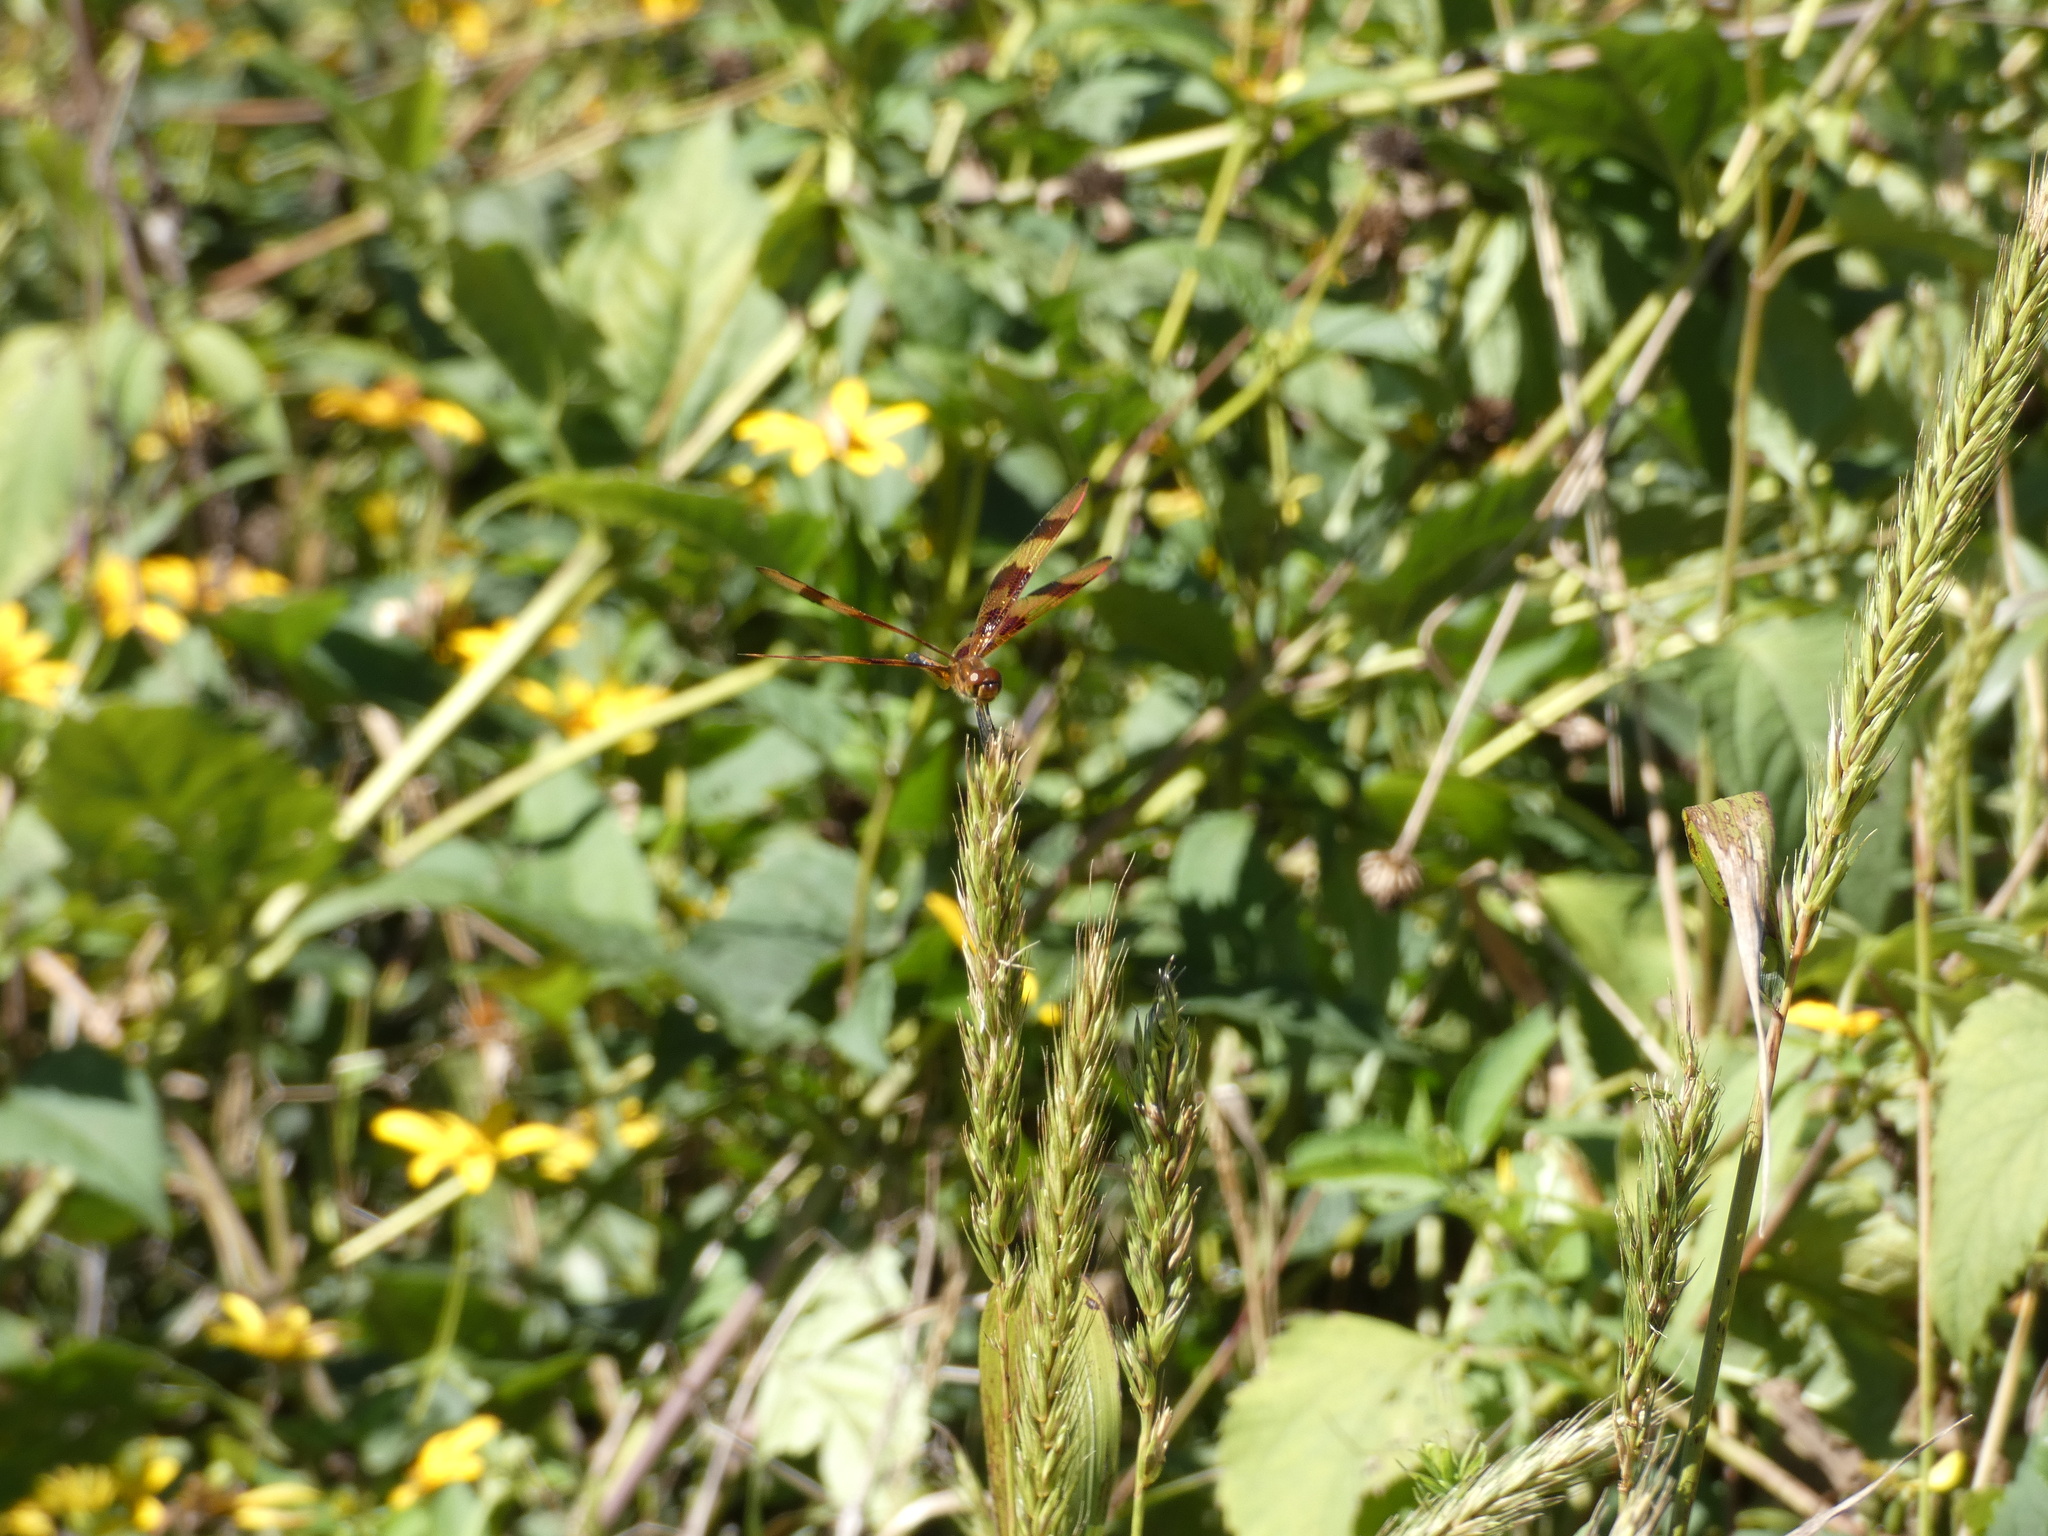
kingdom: Animalia
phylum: Arthropoda
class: Insecta
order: Odonata
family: Libellulidae
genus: Celithemis
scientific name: Celithemis eponina
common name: Halloween pennant
